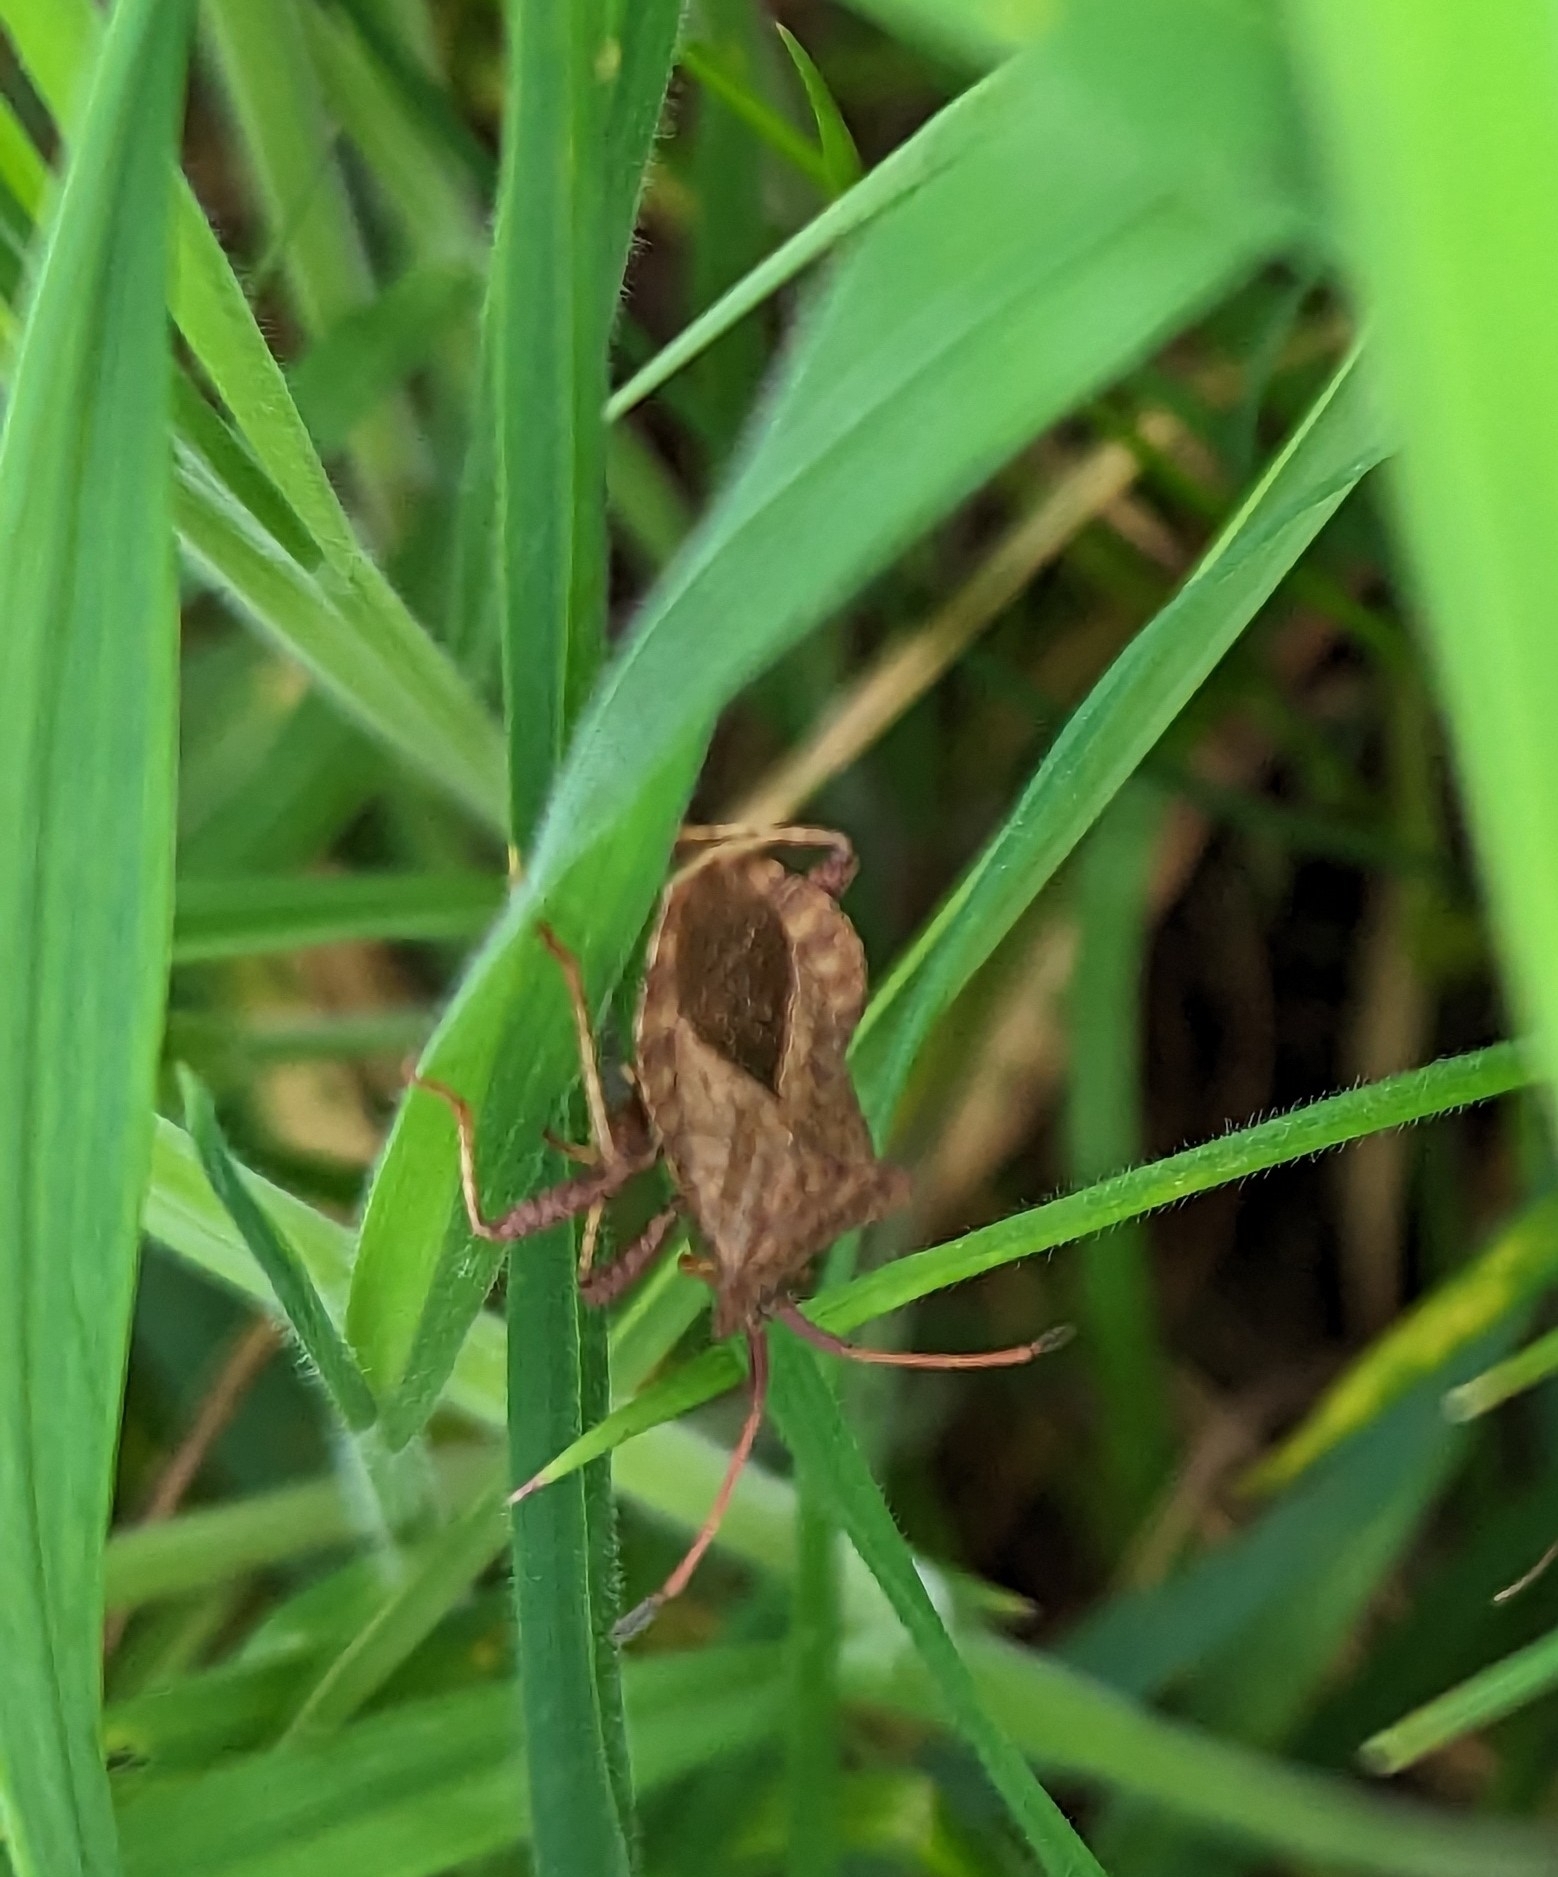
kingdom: Animalia
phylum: Arthropoda
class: Insecta
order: Hemiptera
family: Coreidae
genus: Coreus
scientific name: Coreus marginatus
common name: Dock bug
